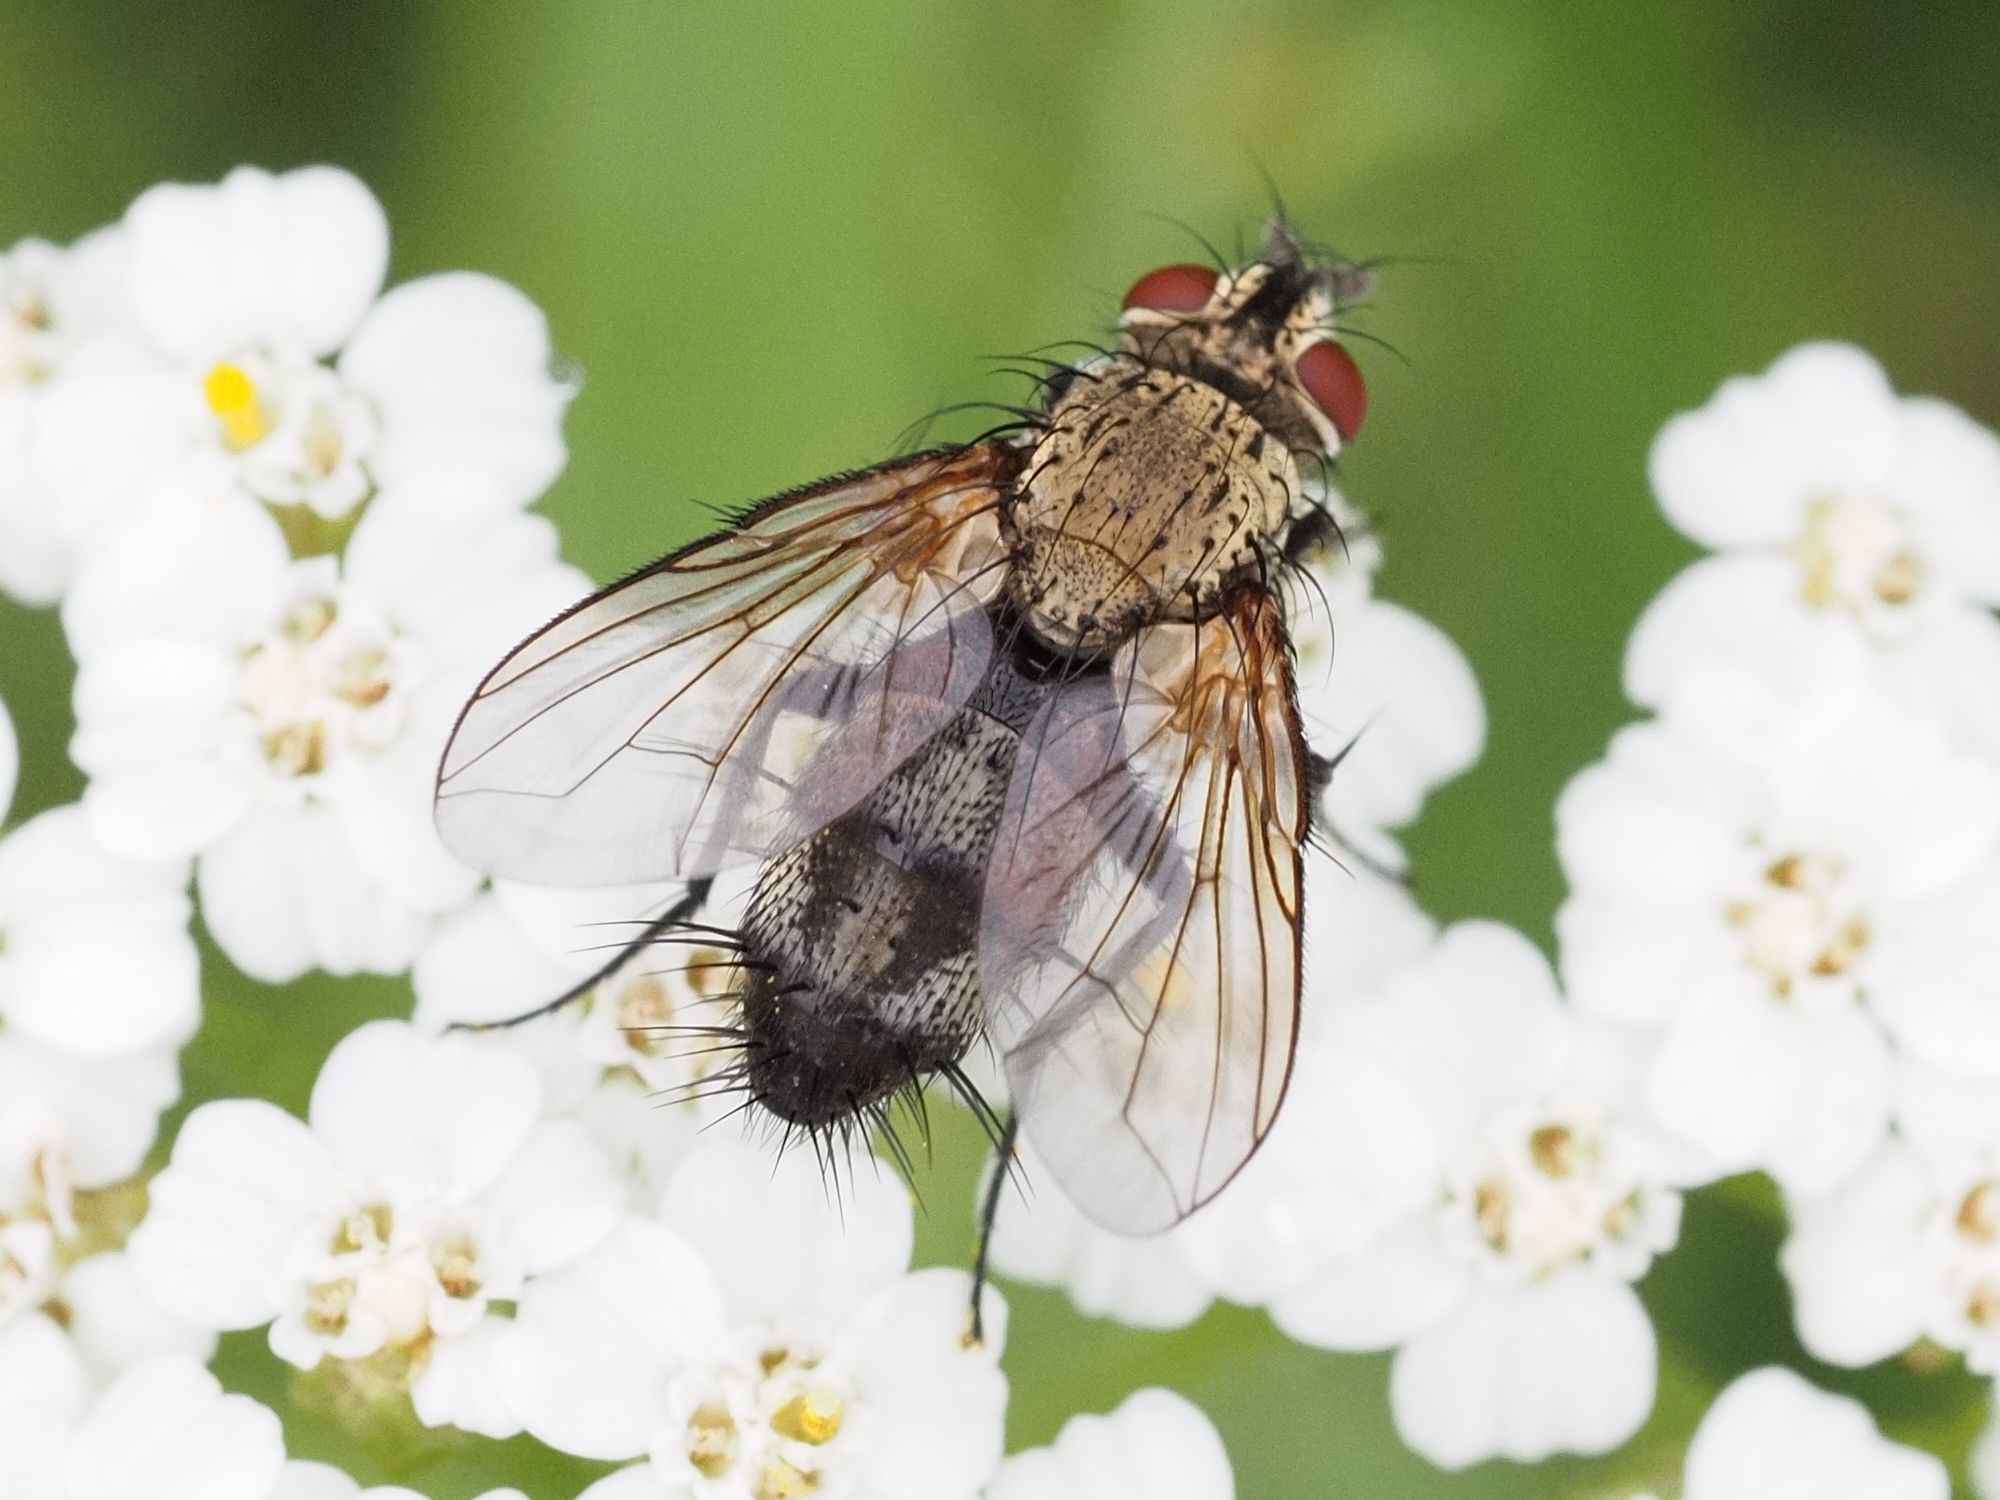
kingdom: Animalia
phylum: Arthropoda
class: Insecta
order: Diptera
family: Tachinidae
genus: Bithia
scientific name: Bithia spreta
